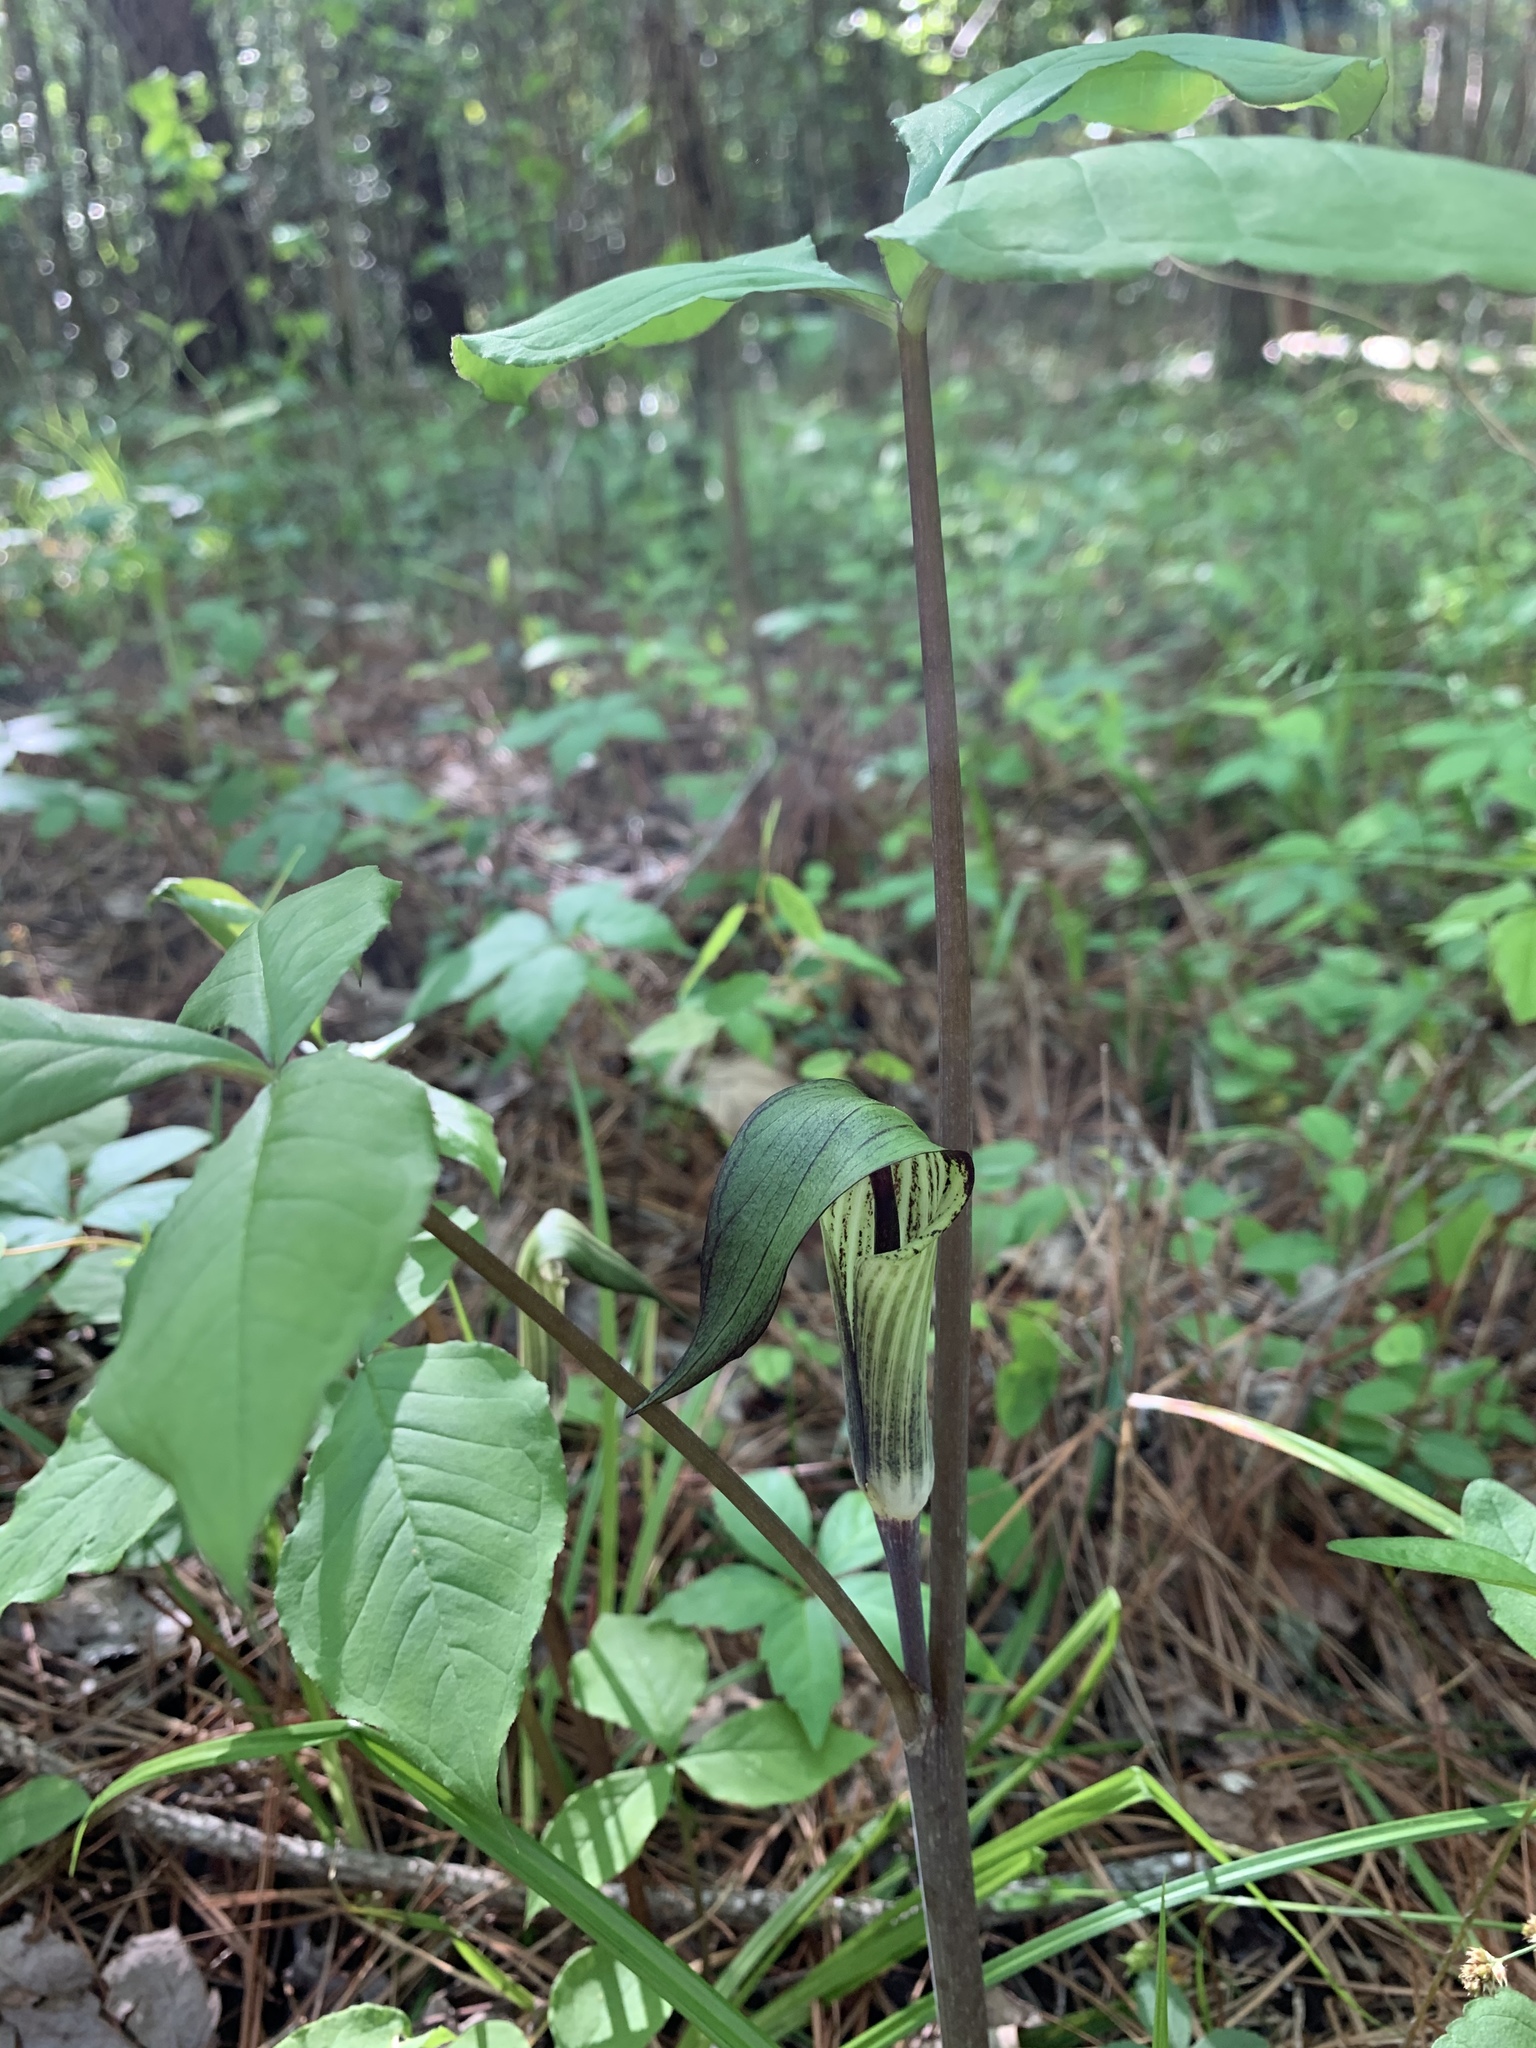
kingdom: Plantae
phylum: Tracheophyta
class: Liliopsida
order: Alismatales
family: Araceae
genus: Arisaema
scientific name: Arisaema triphyllum
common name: Jack-in-the-pulpit
